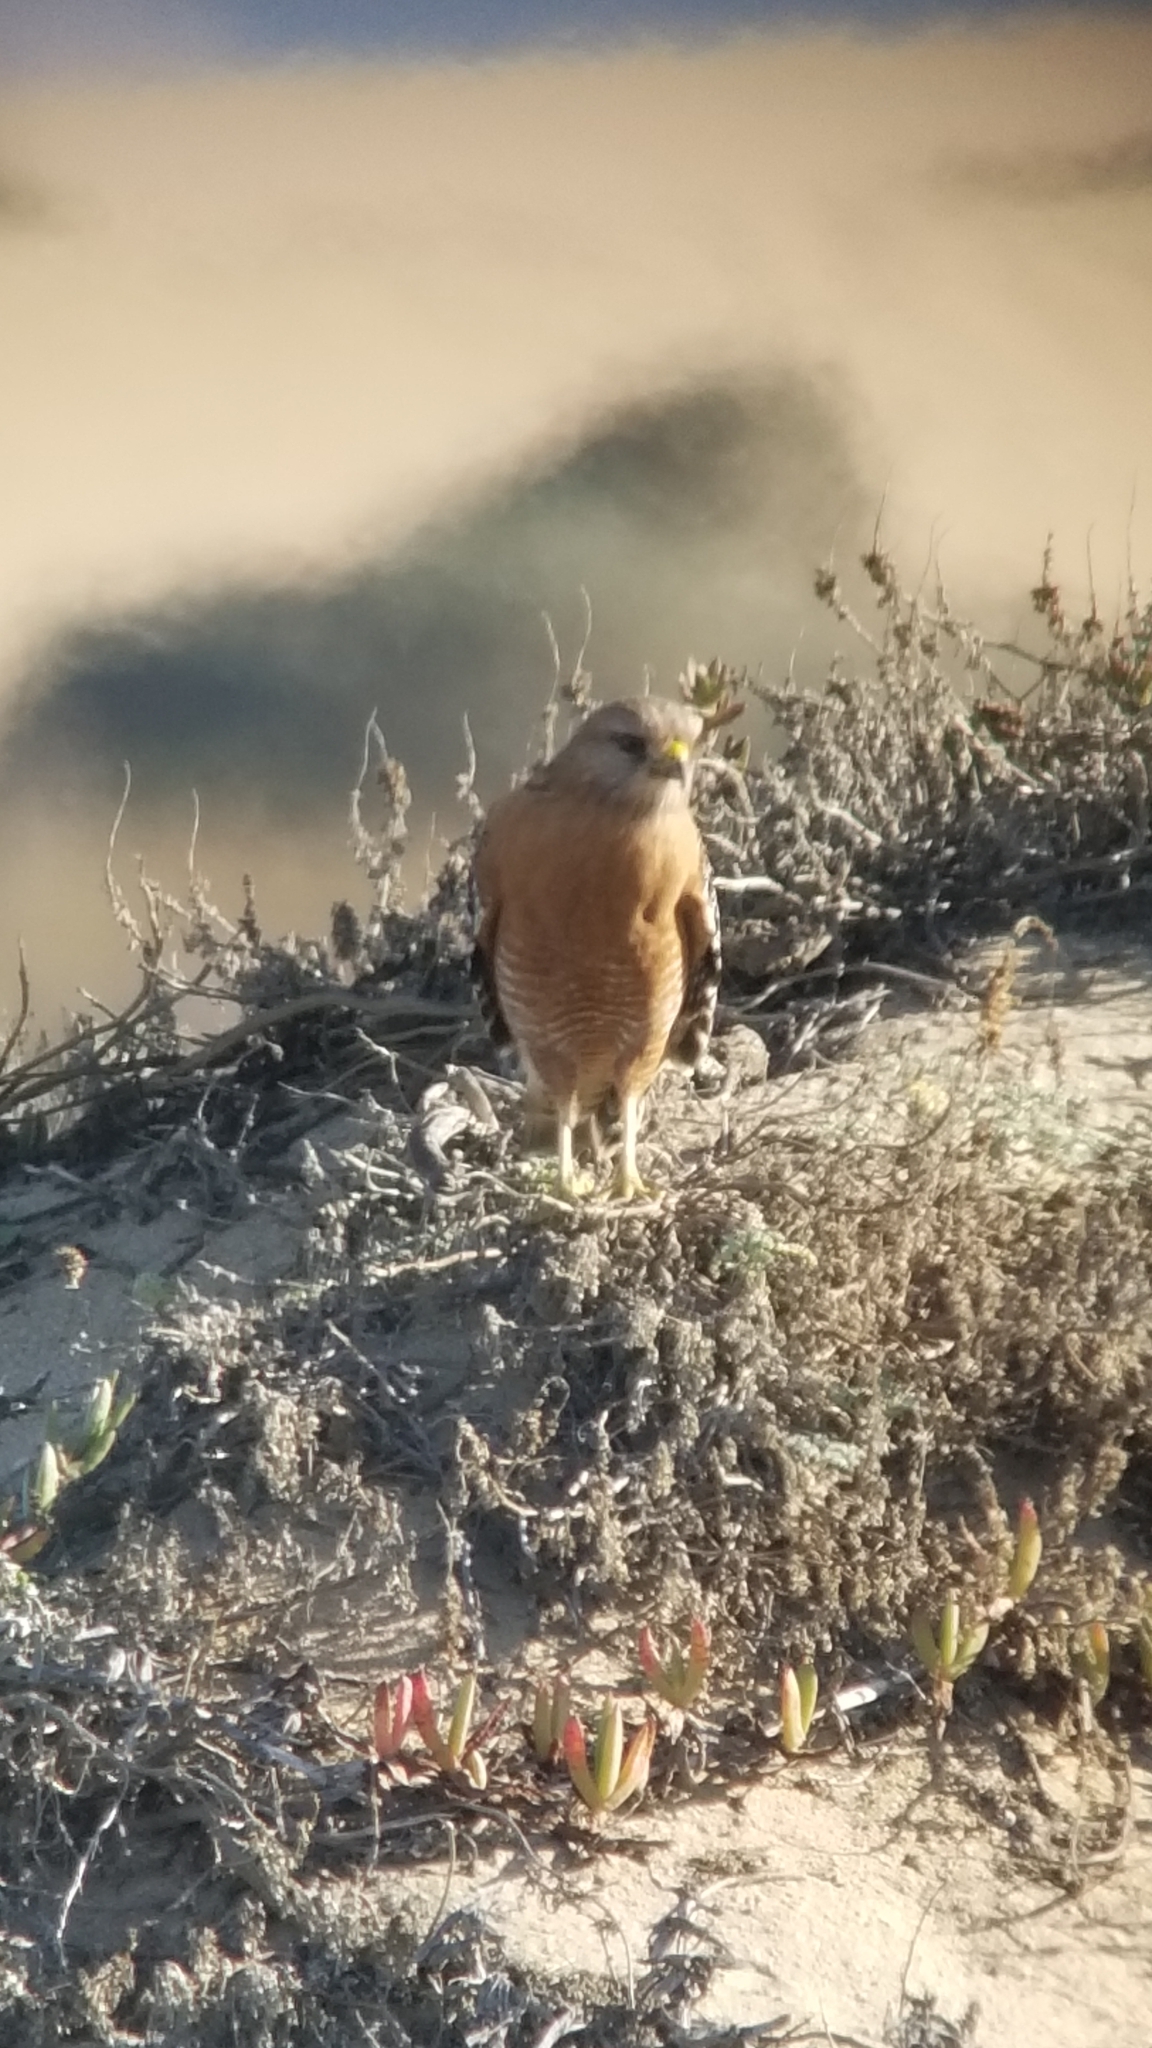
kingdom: Animalia
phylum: Chordata
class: Aves
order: Accipitriformes
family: Accipitridae
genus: Buteo
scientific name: Buteo lineatus
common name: Red-shouldered hawk
